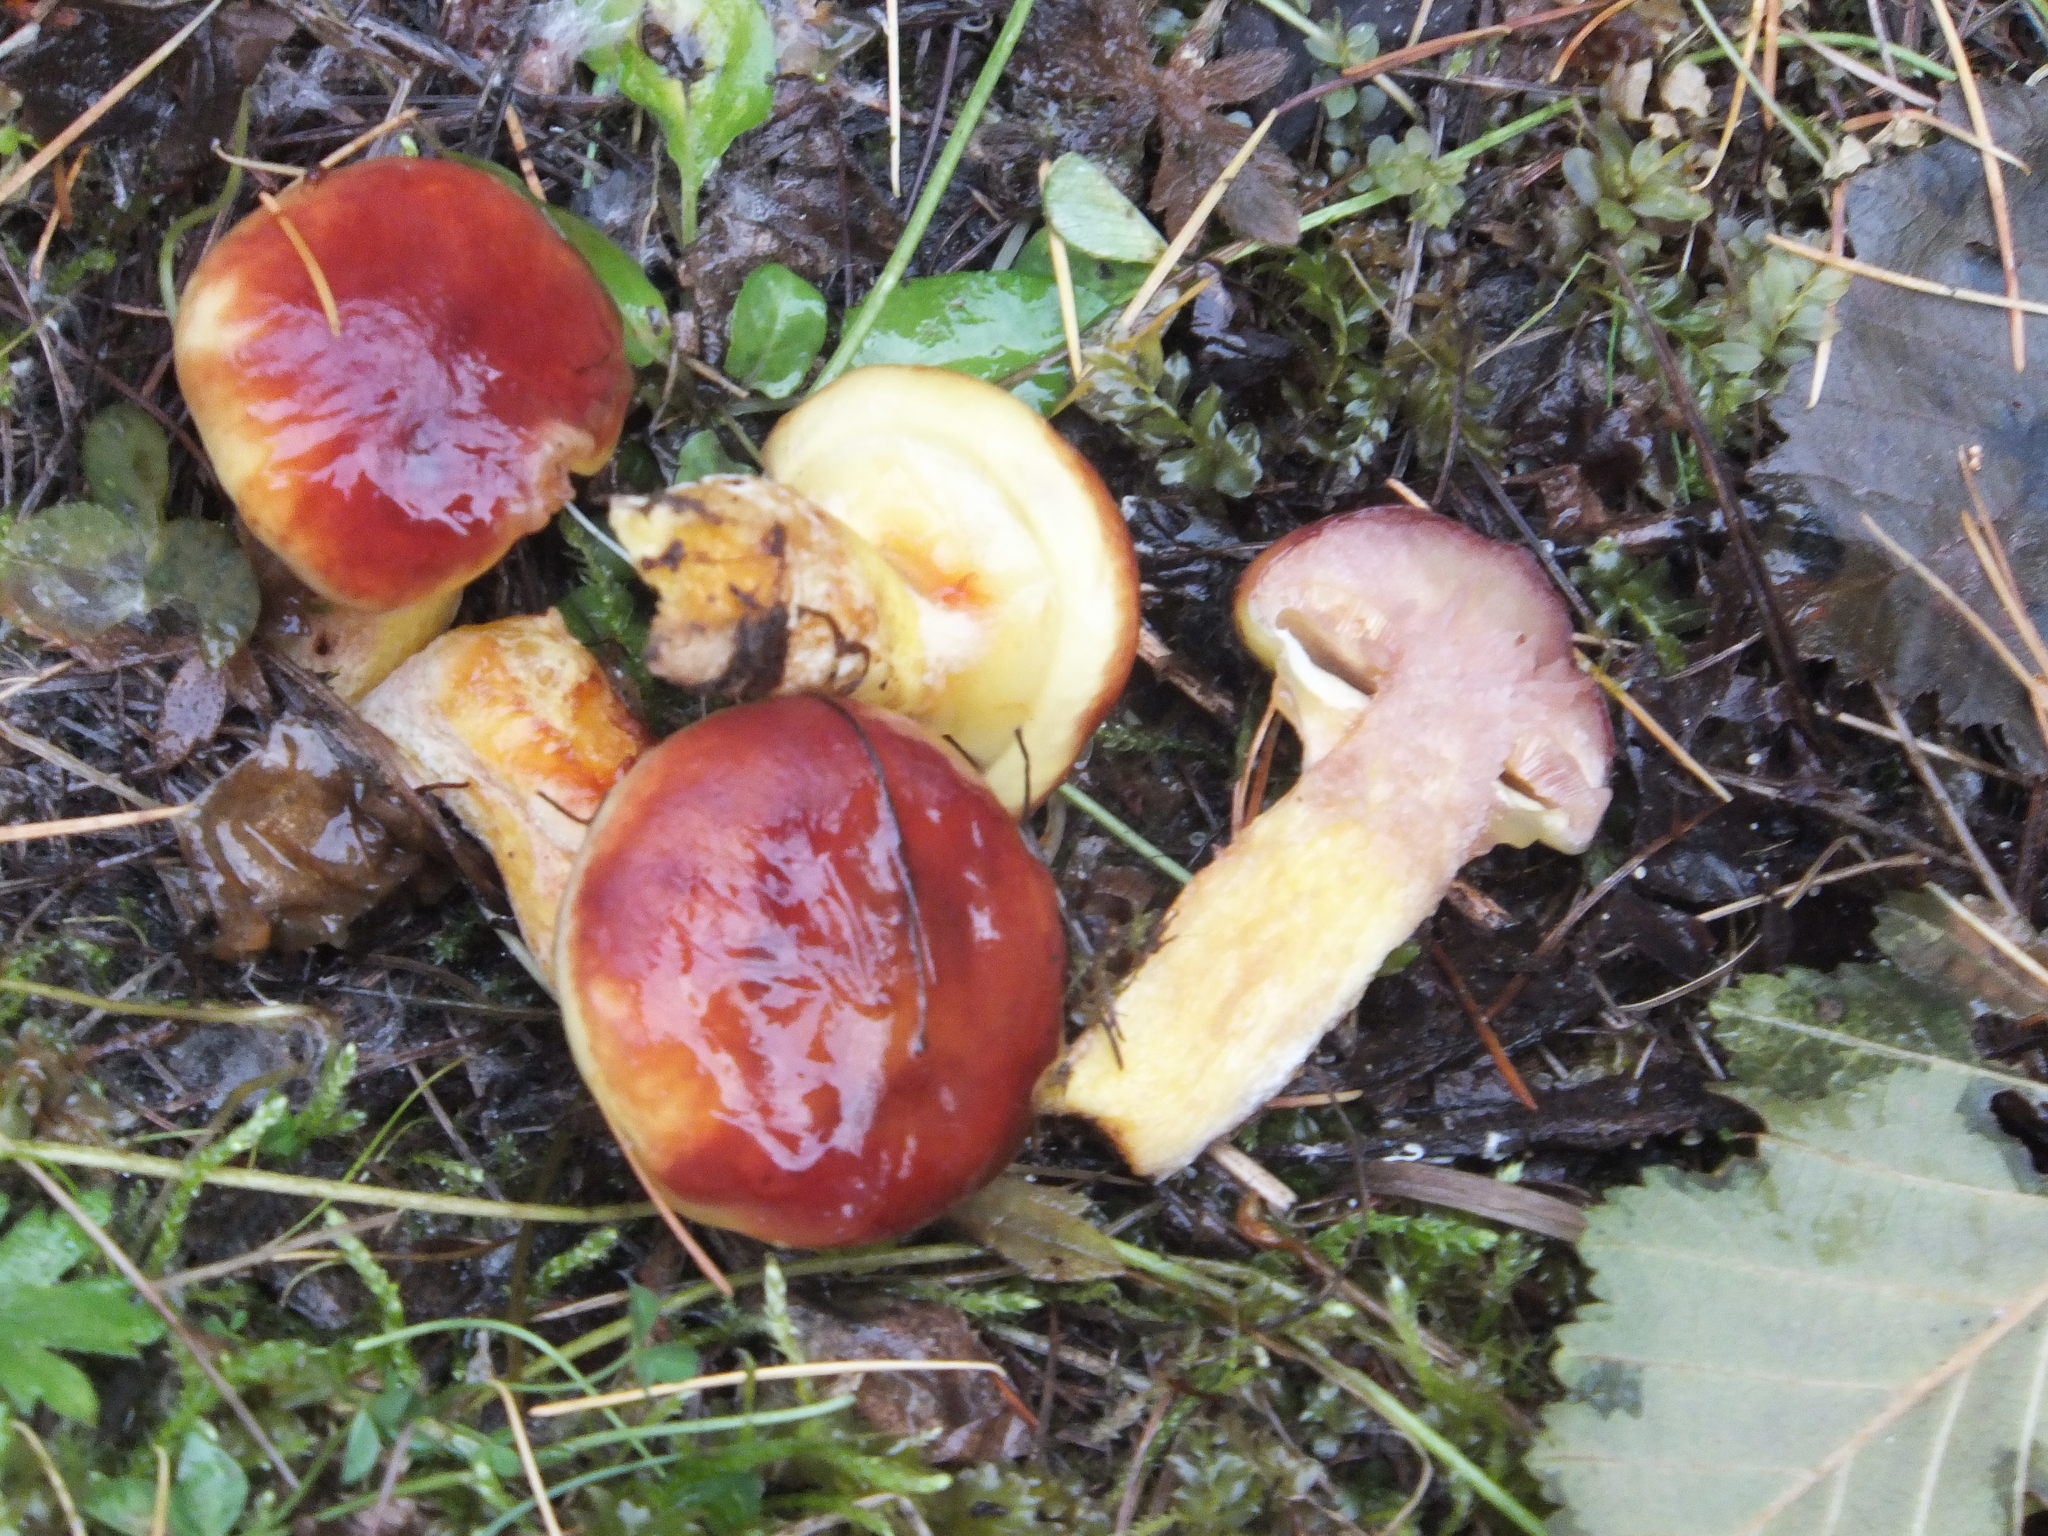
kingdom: Fungi
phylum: Basidiomycota
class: Agaricomycetes
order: Boletales
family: Suillaceae
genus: Suillus
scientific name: Suillus grevillei
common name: Larch bolete
